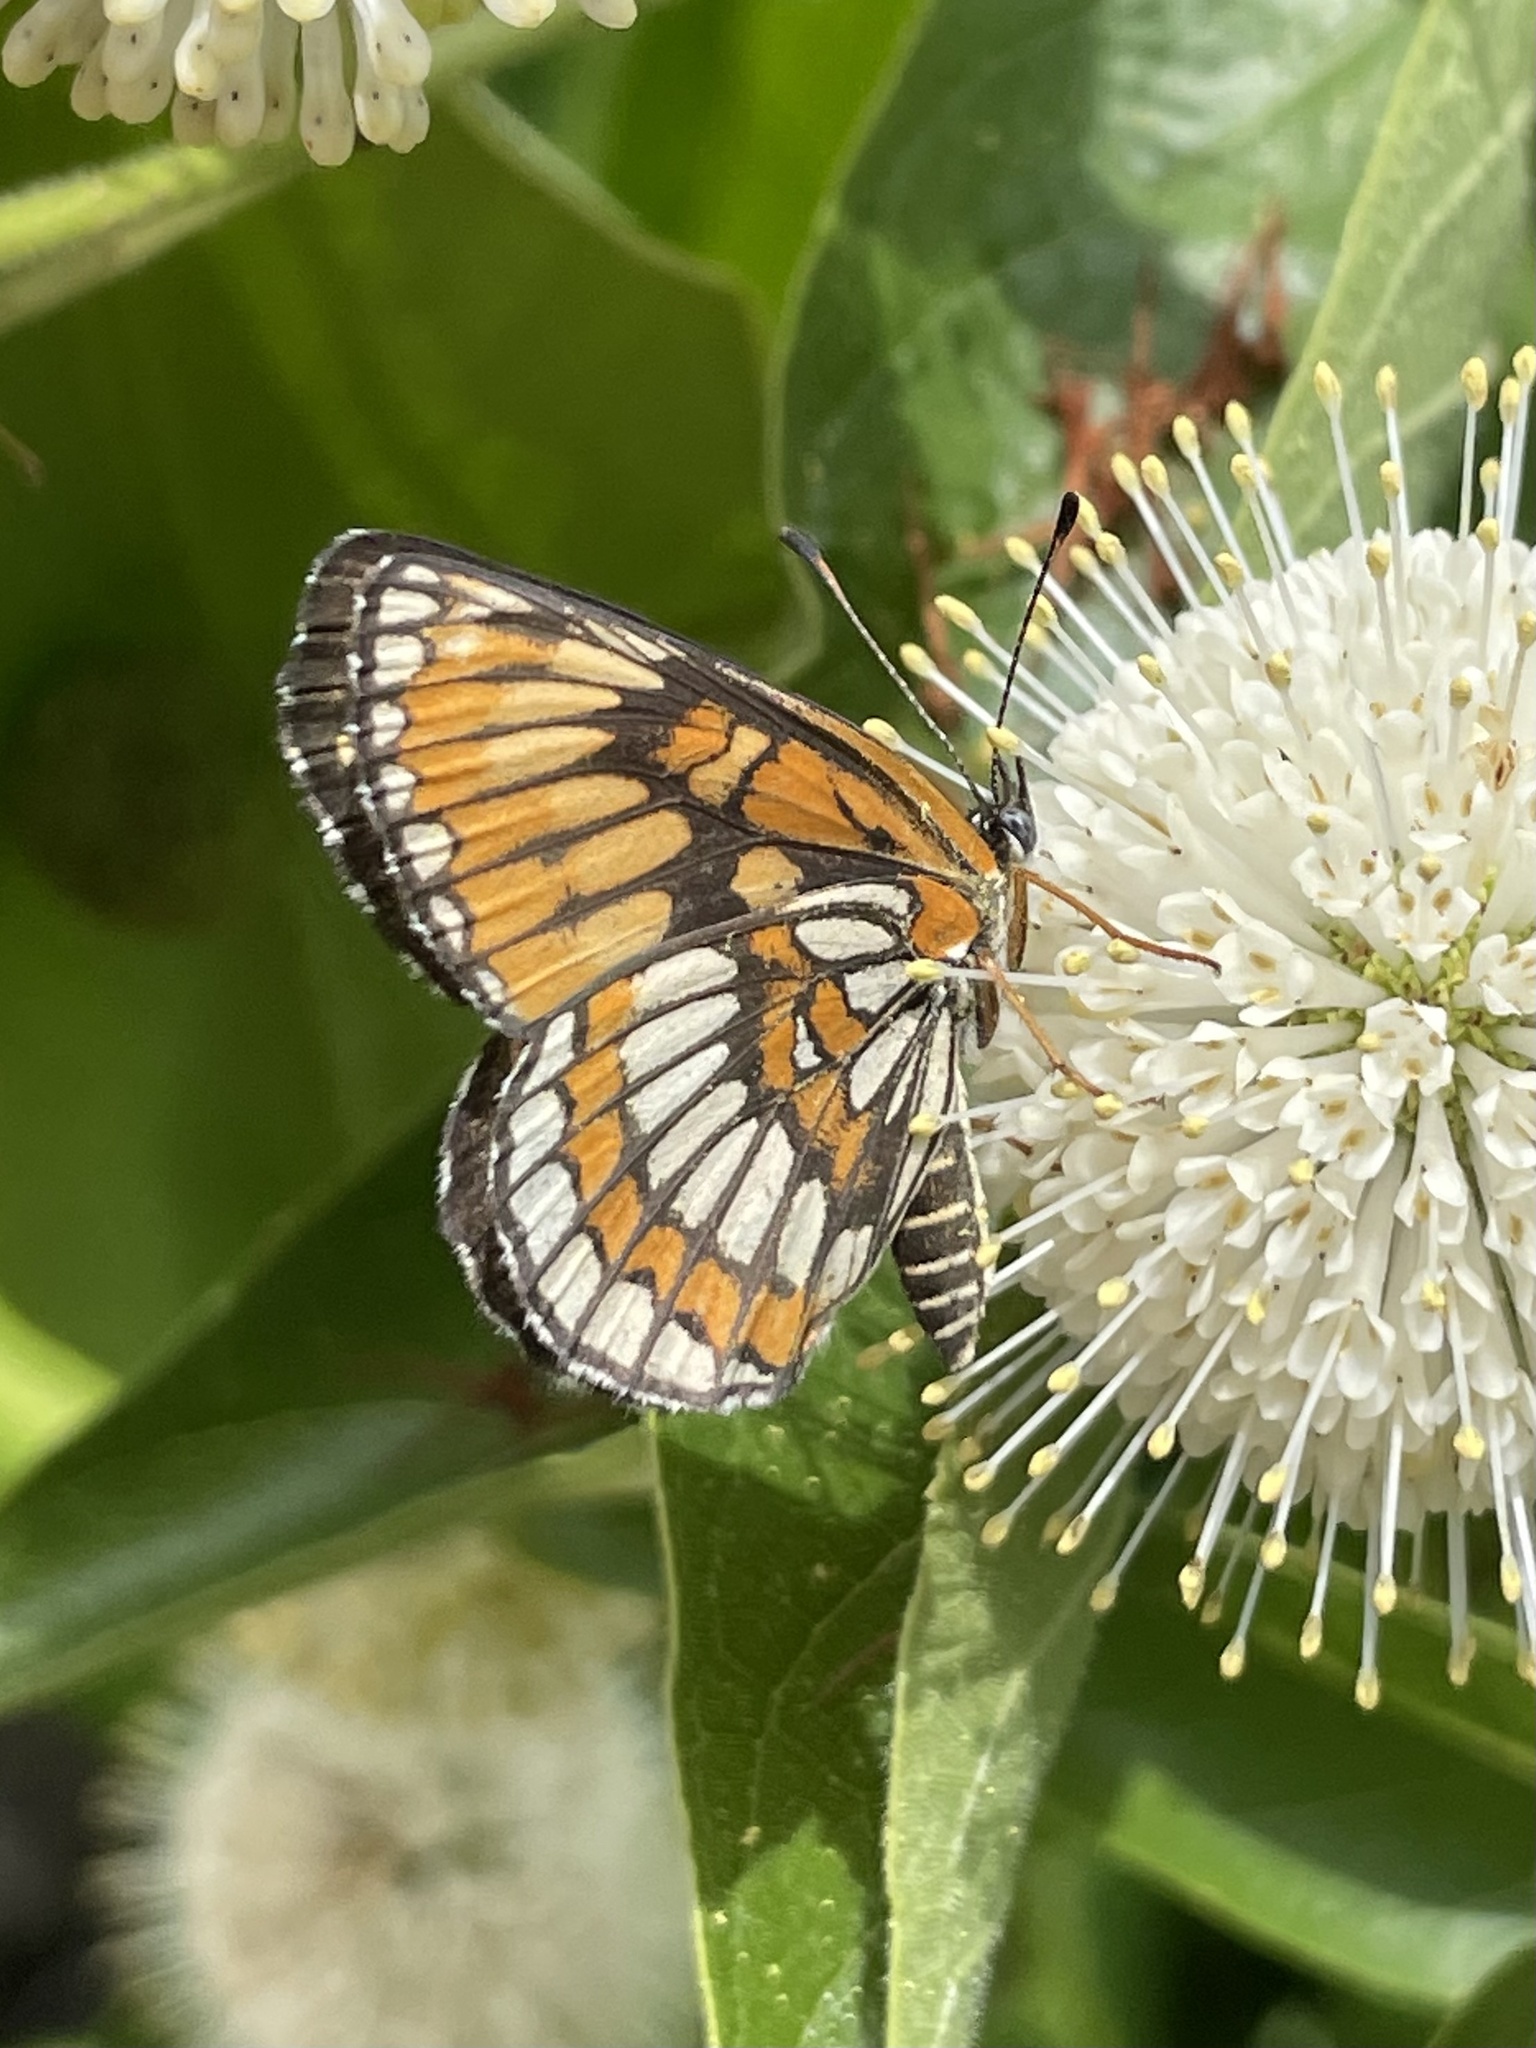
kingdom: Animalia
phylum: Arthropoda
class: Insecta
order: Lepidoptera
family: Nymphalidae
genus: Thessalia
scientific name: Thessalia theona
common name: Nymphalid moth
